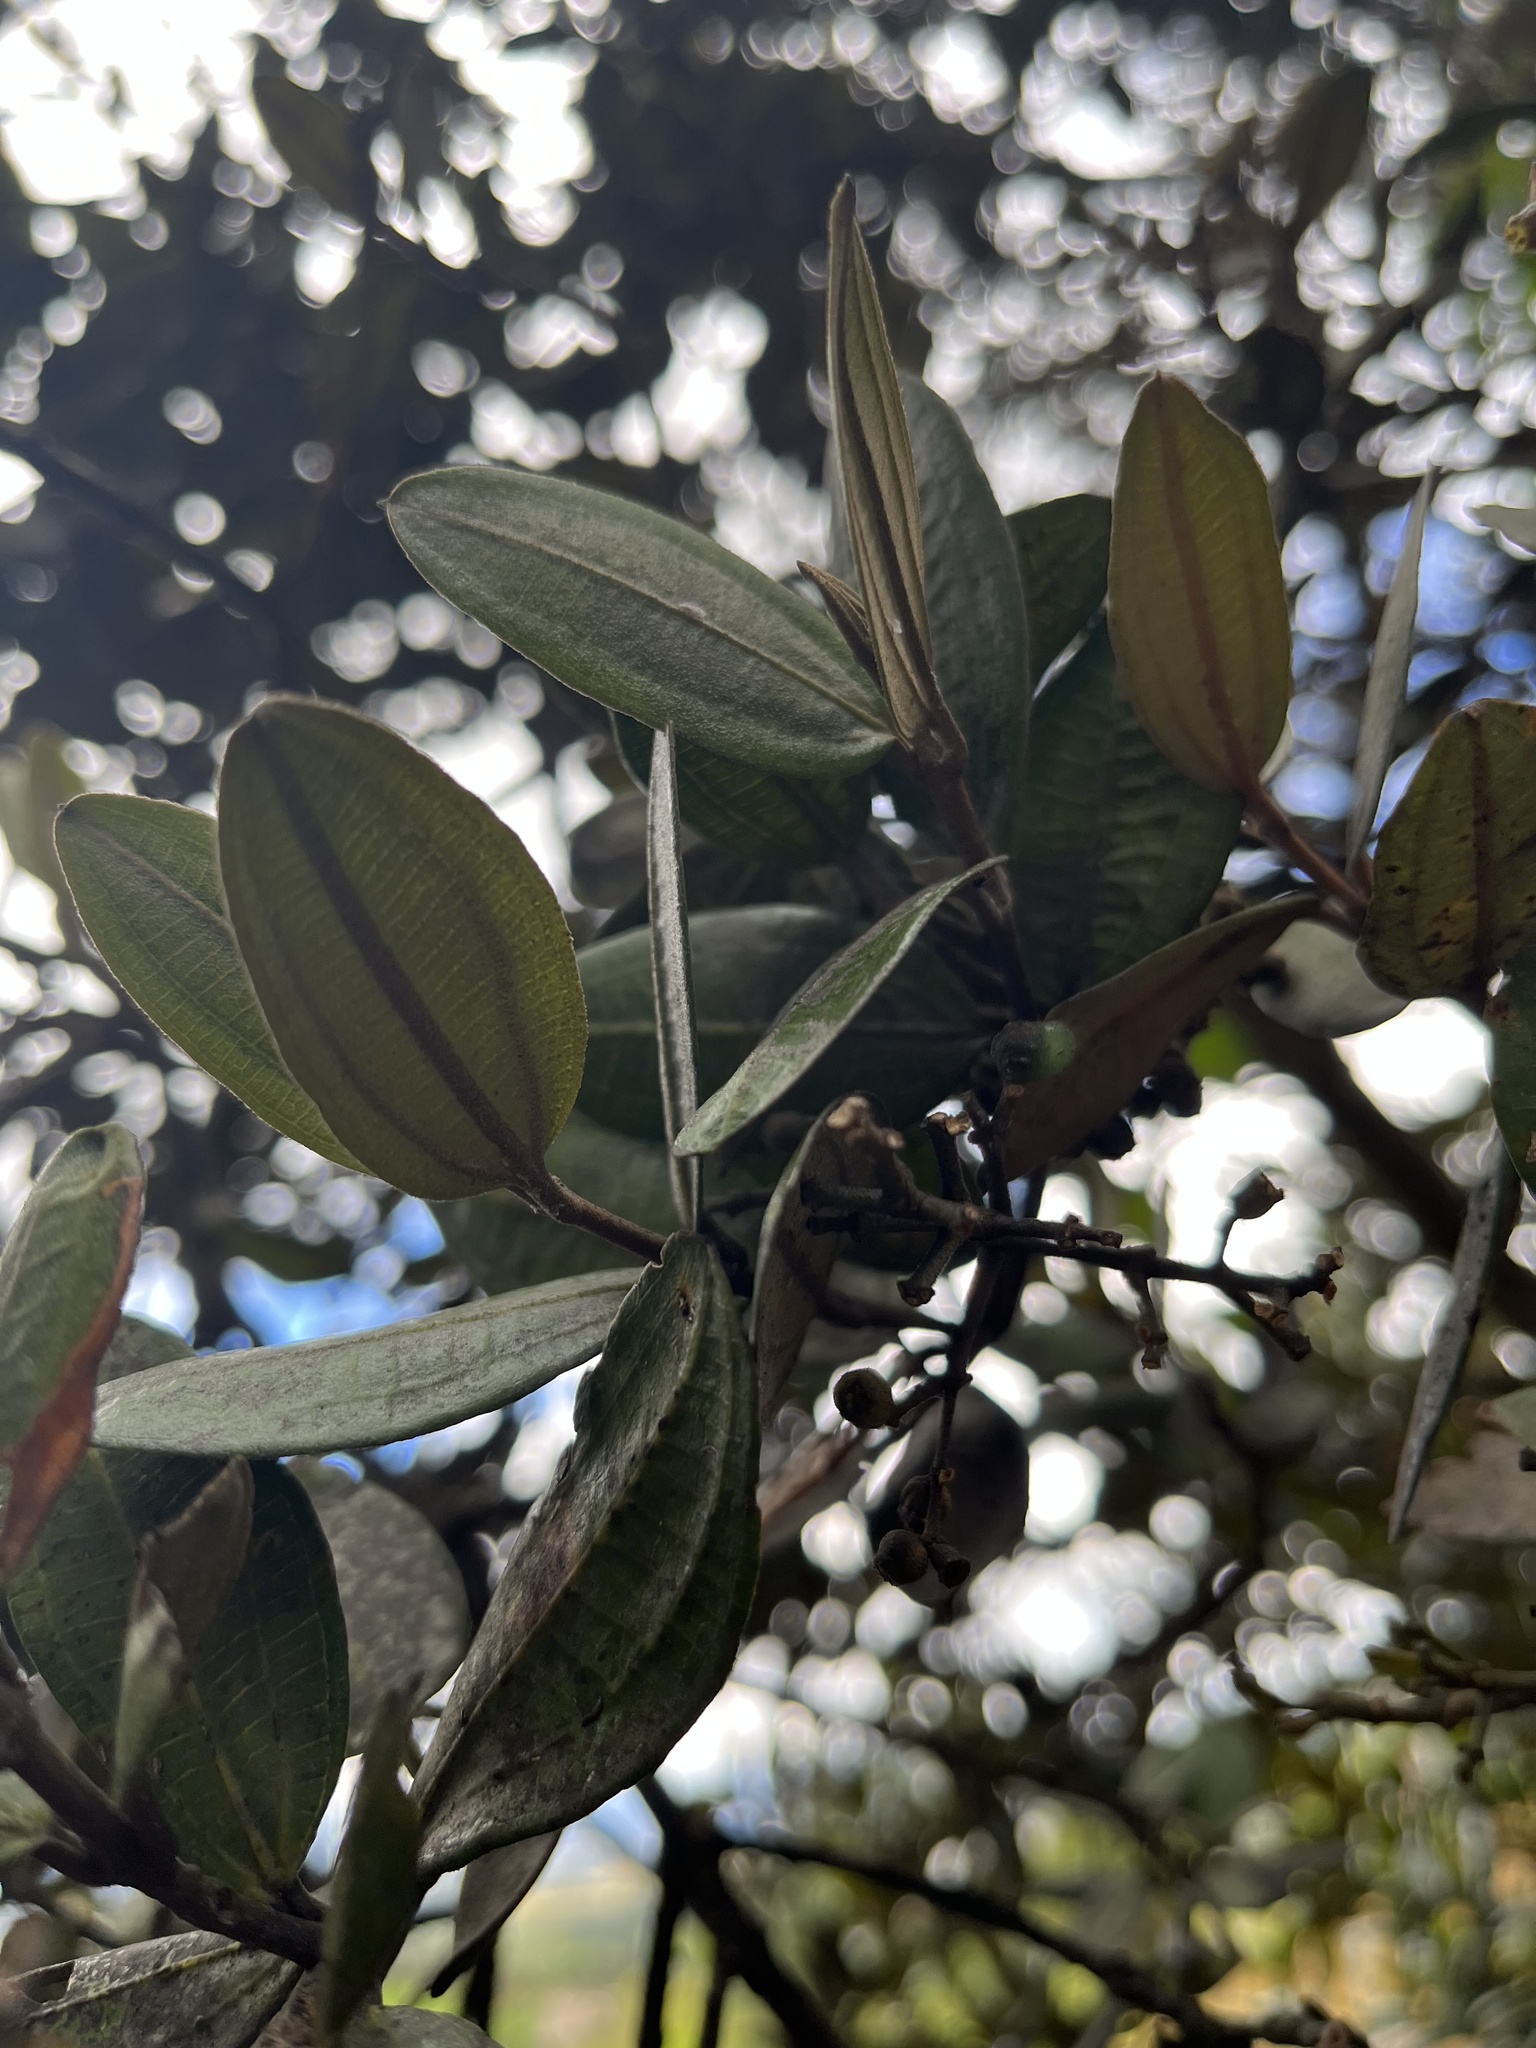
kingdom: Plantae
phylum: Tracheophyta
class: Magnoliopsida
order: Myrtales
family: Melastomataceae
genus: Miconia
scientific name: Miconia squamulosa
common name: Squamulose maya
